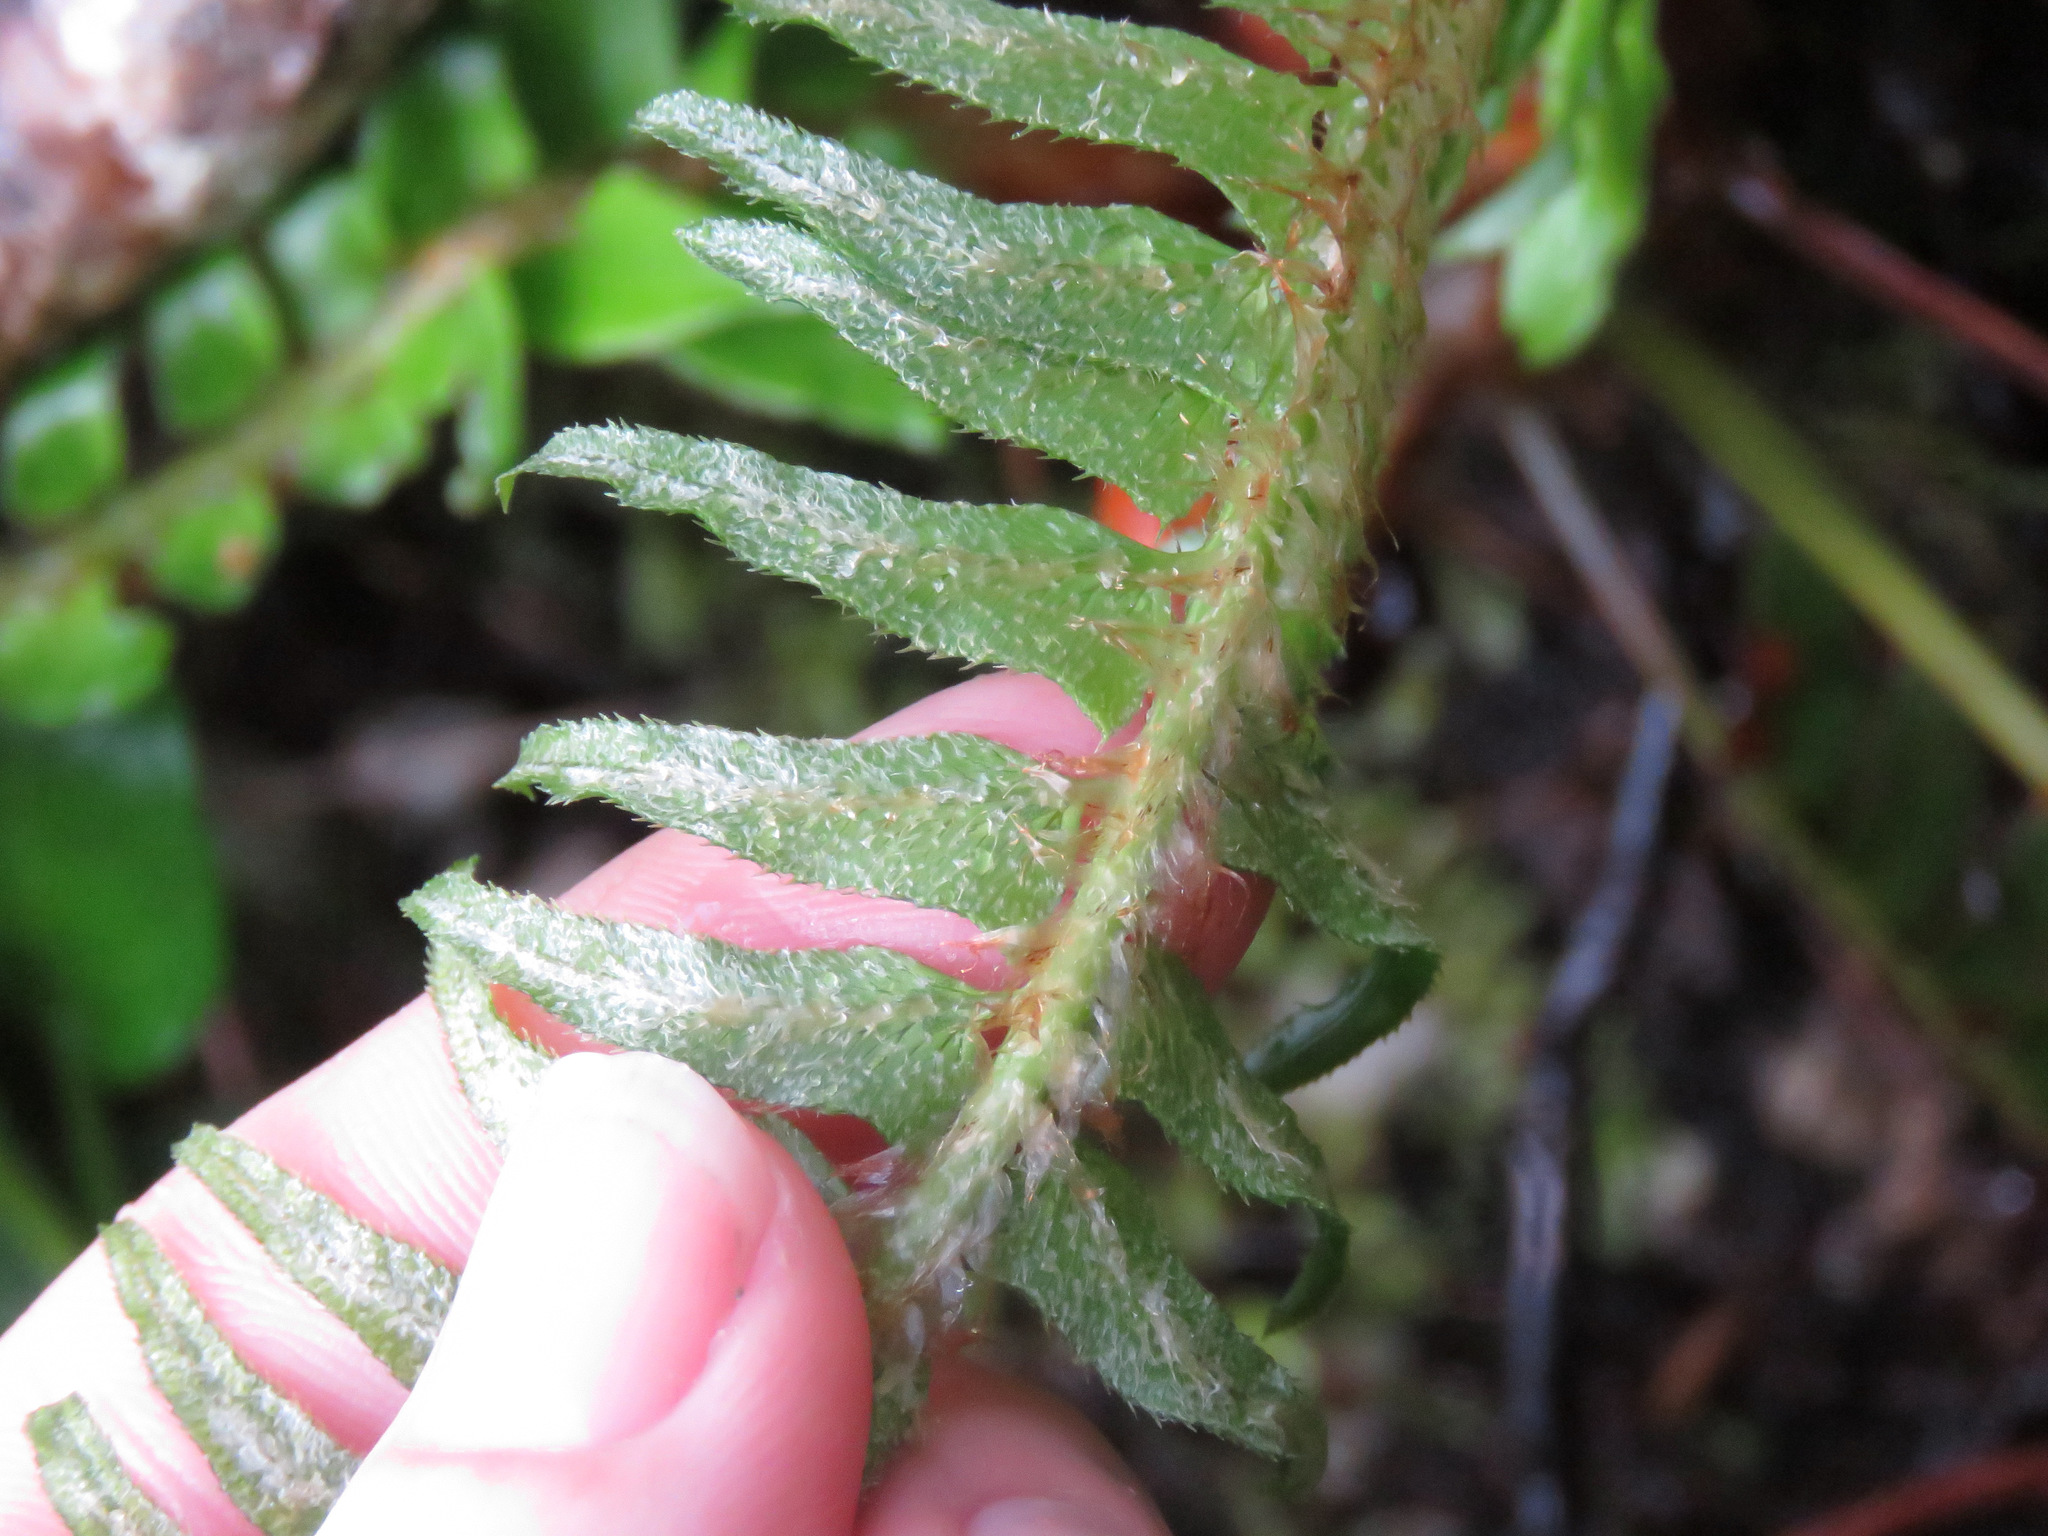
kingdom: Plantae
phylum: Tracheophyta
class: Polypodiopsida
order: Polypodiales
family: Dryopteridaceae
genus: Polystichum
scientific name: Polystichum munitum
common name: Western sword-fern
